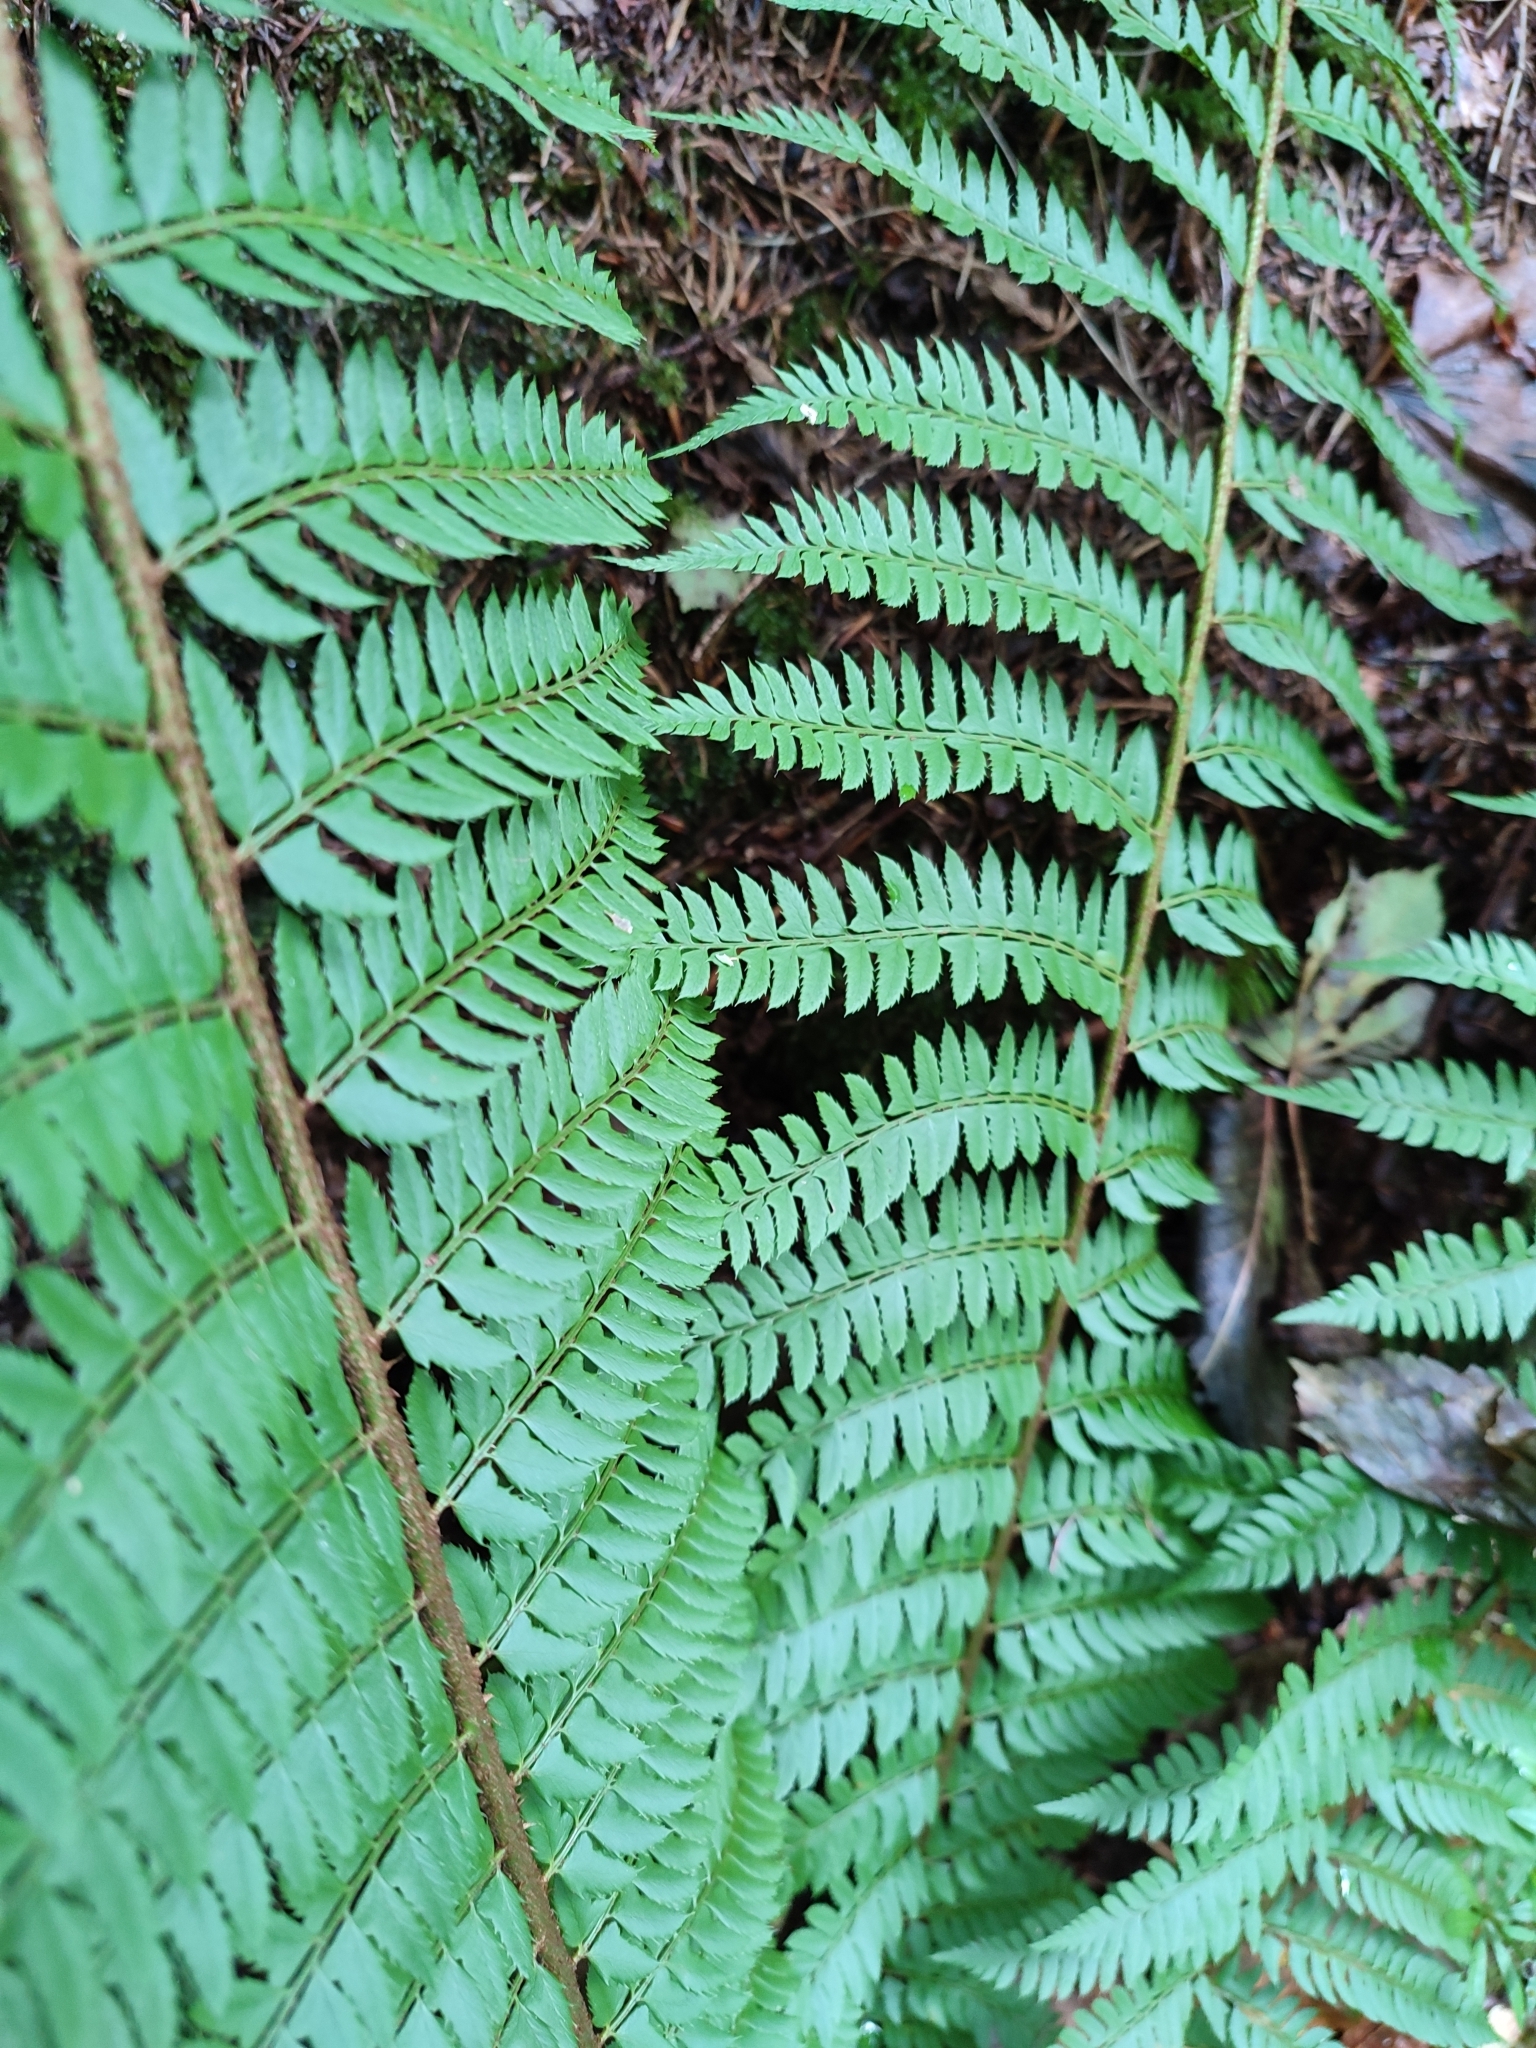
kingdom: Plantae
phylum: Tracheophyta
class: Polypodiopsida
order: Polypodiales
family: Dryopteridaceae
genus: Polystichum
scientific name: Polystichum aculeatum
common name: Hard shield-fern
